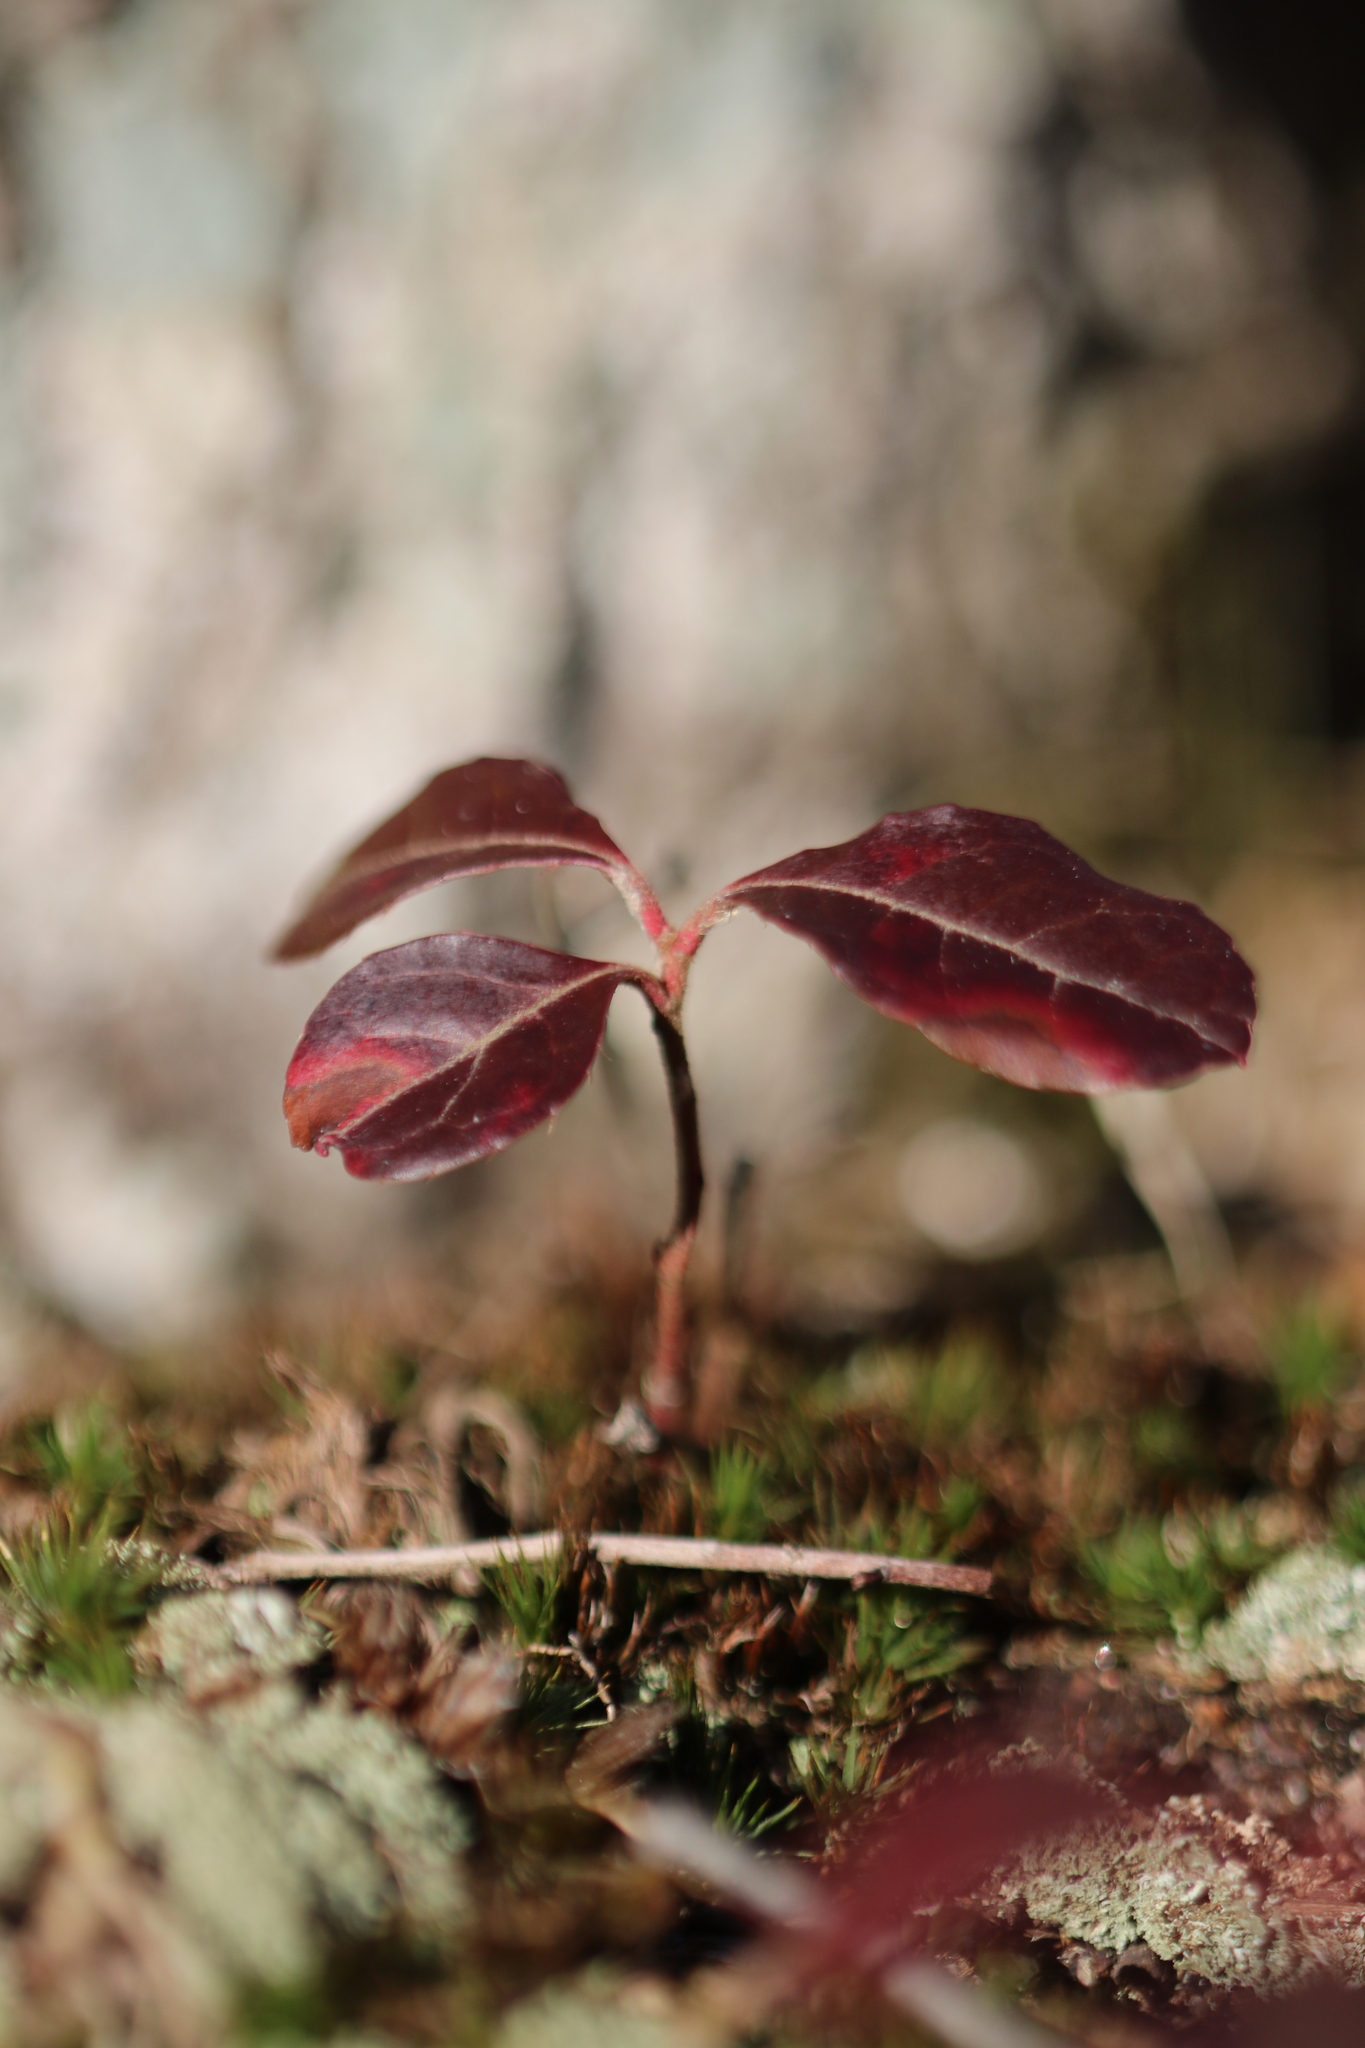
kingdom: Plantae
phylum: Tracheophyta
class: Magnoliopsida
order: Ericales
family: Ericaceae
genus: Gaultheria
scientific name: Gaultheria procumbens
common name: Checkerberry
